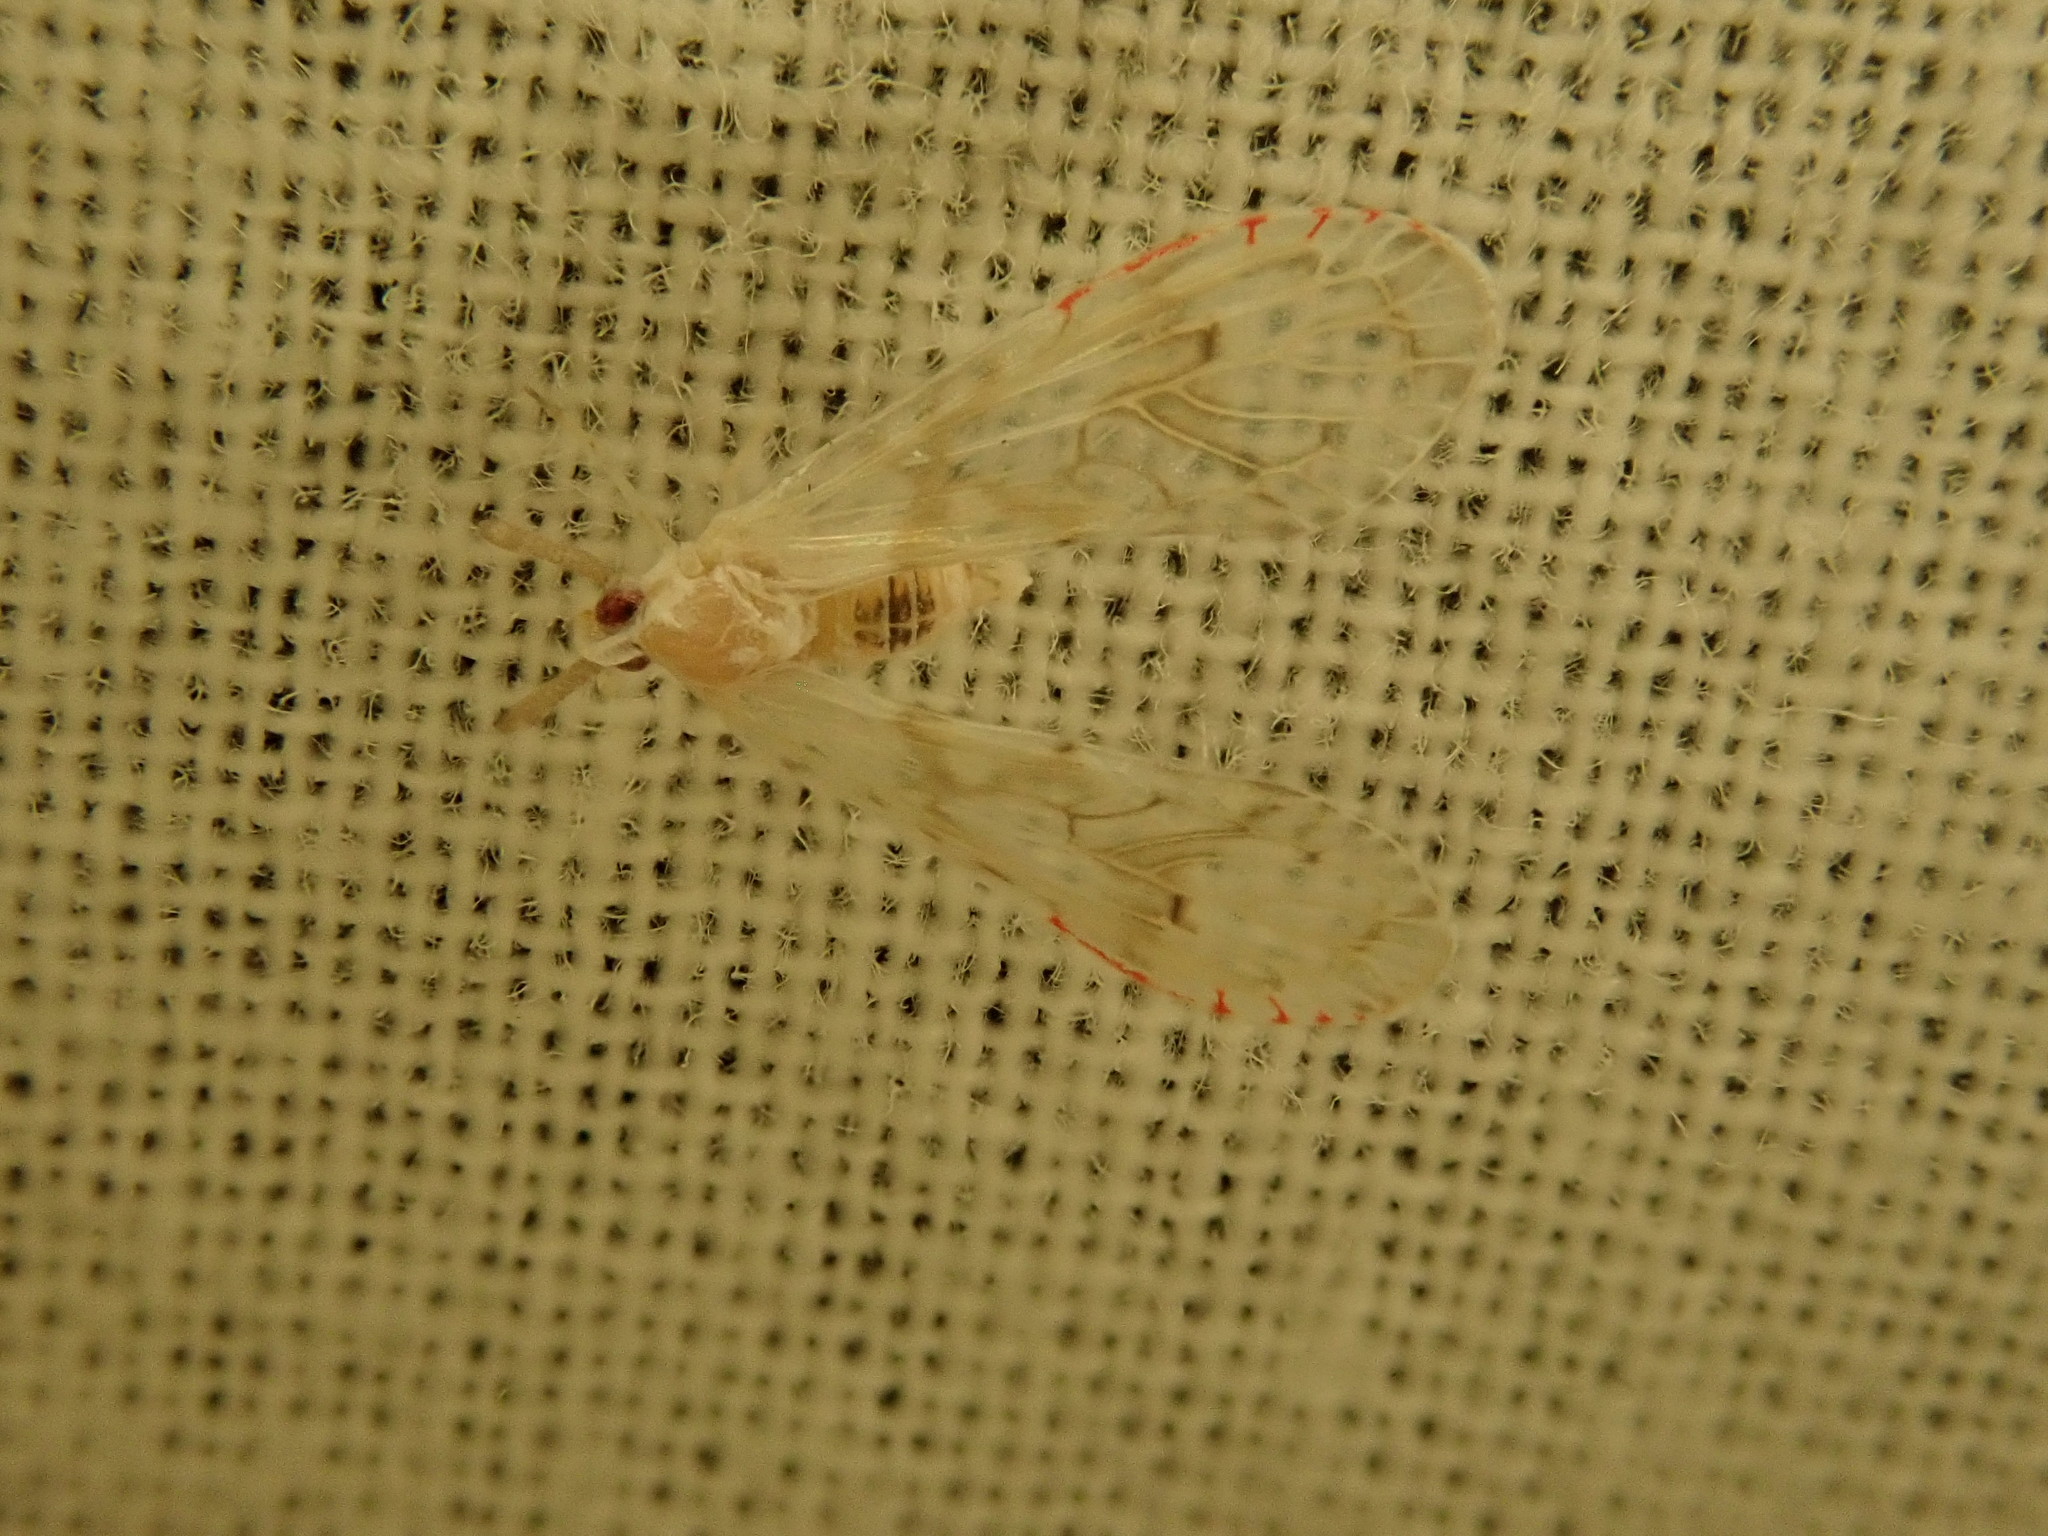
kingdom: Animalia
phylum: Arthropoda
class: Insecta
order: Hemiptera
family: Derbidae
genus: Anotia
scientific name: Anotia robertsonii
